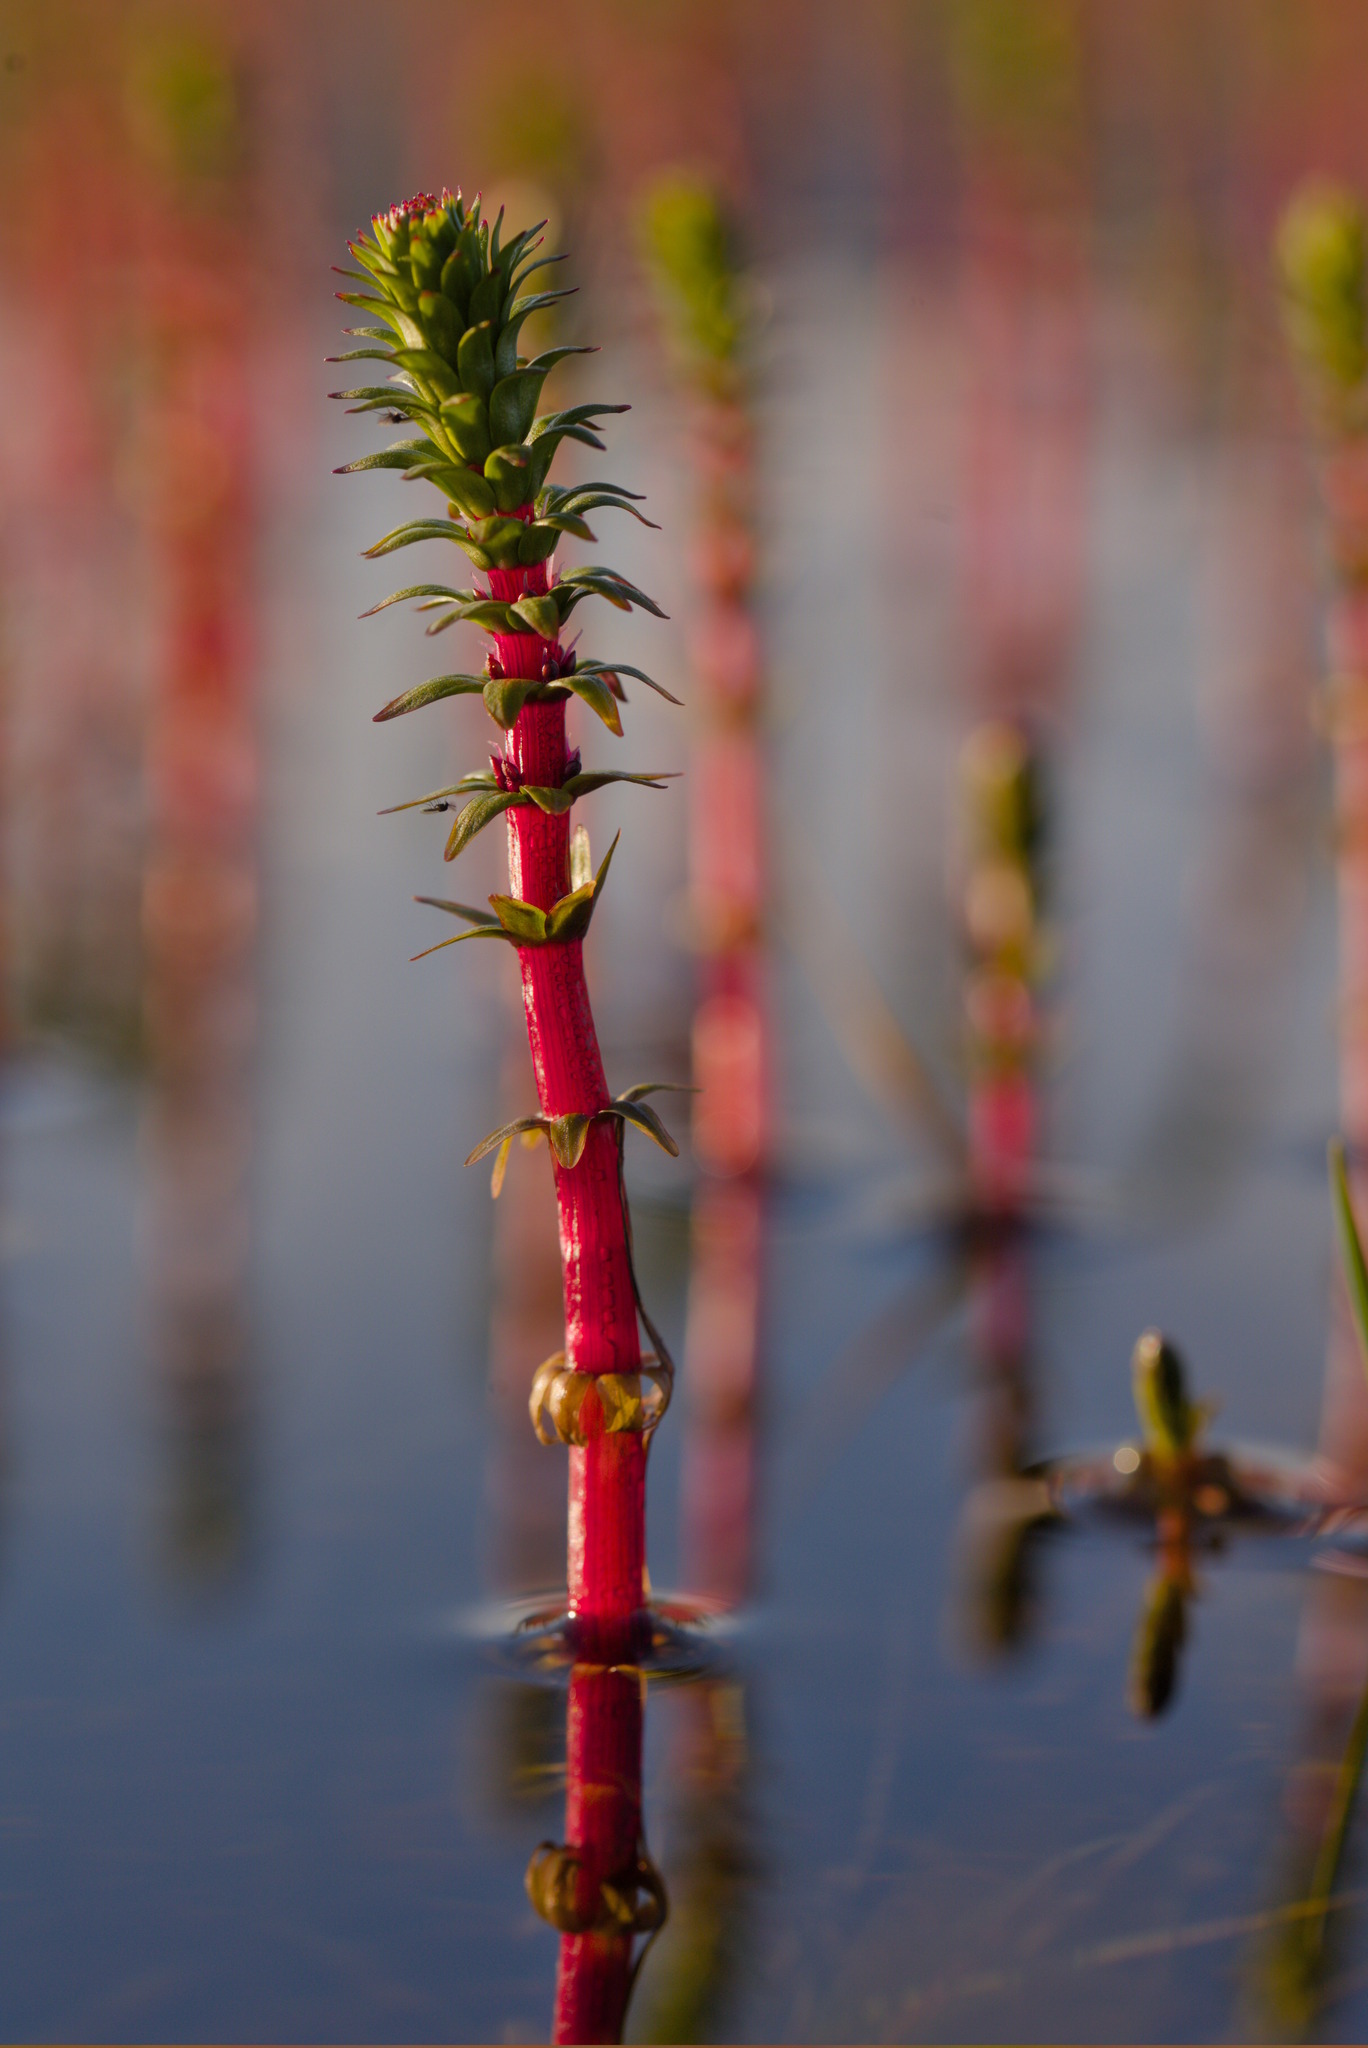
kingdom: Plantae
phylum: Tracheophyta
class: Magnoliopsida
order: Lamiales
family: Plantaginaceae
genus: Hippuris
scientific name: Hippuris lanceolata
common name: Lance-leaved mare's-tail
